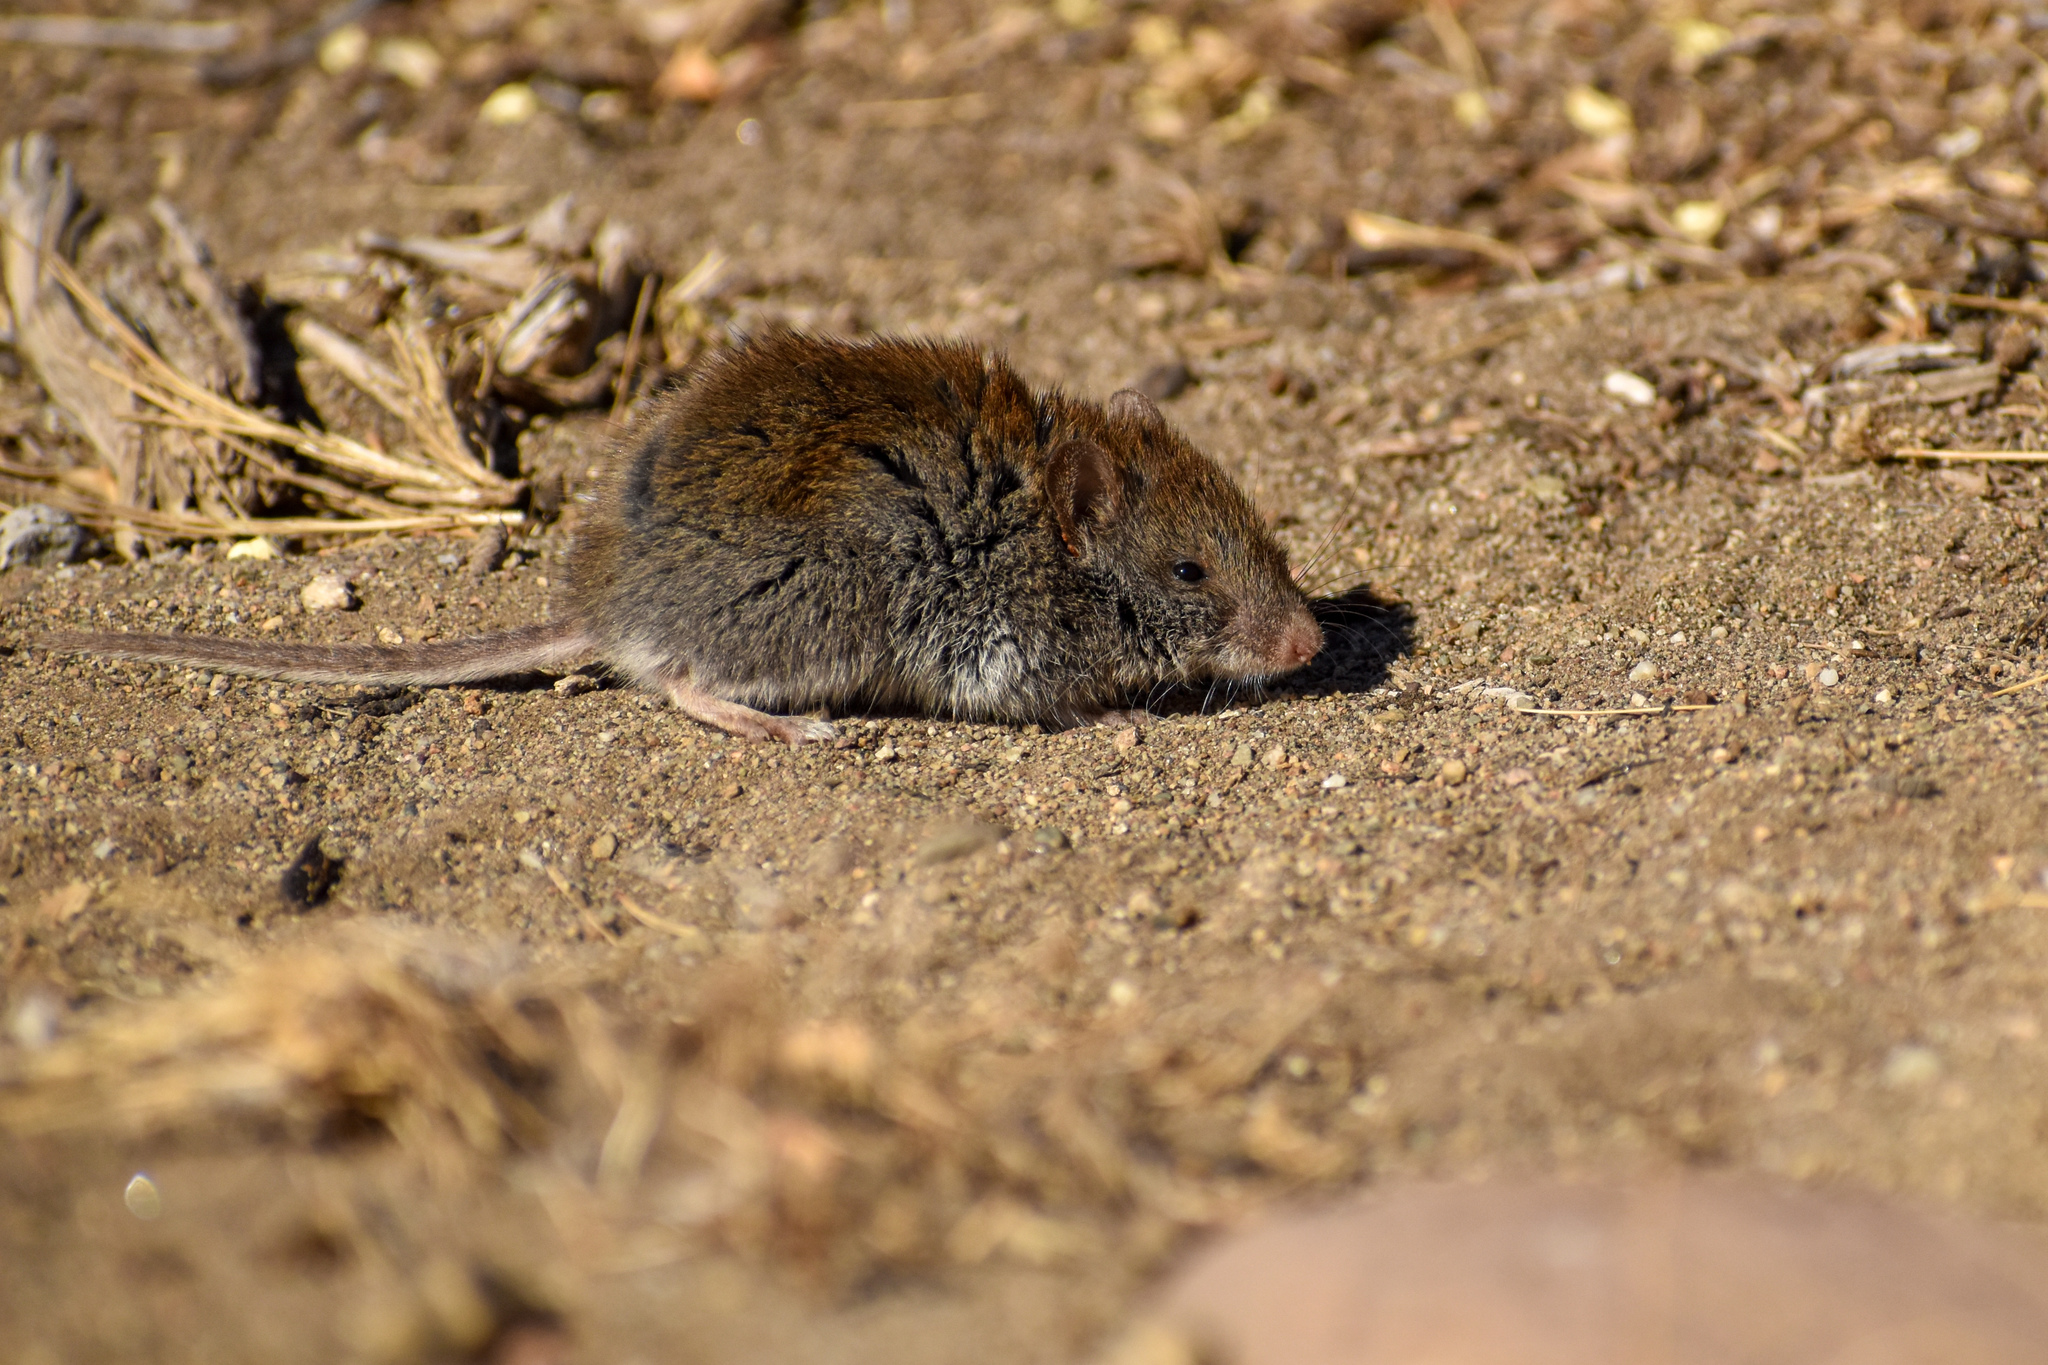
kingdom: Animalia
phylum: Chordata
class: Mammalia
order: Rodentia
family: Cricetidae
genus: Abrothrix
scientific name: Abrothrix longipilis
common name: Long-haired akodont
